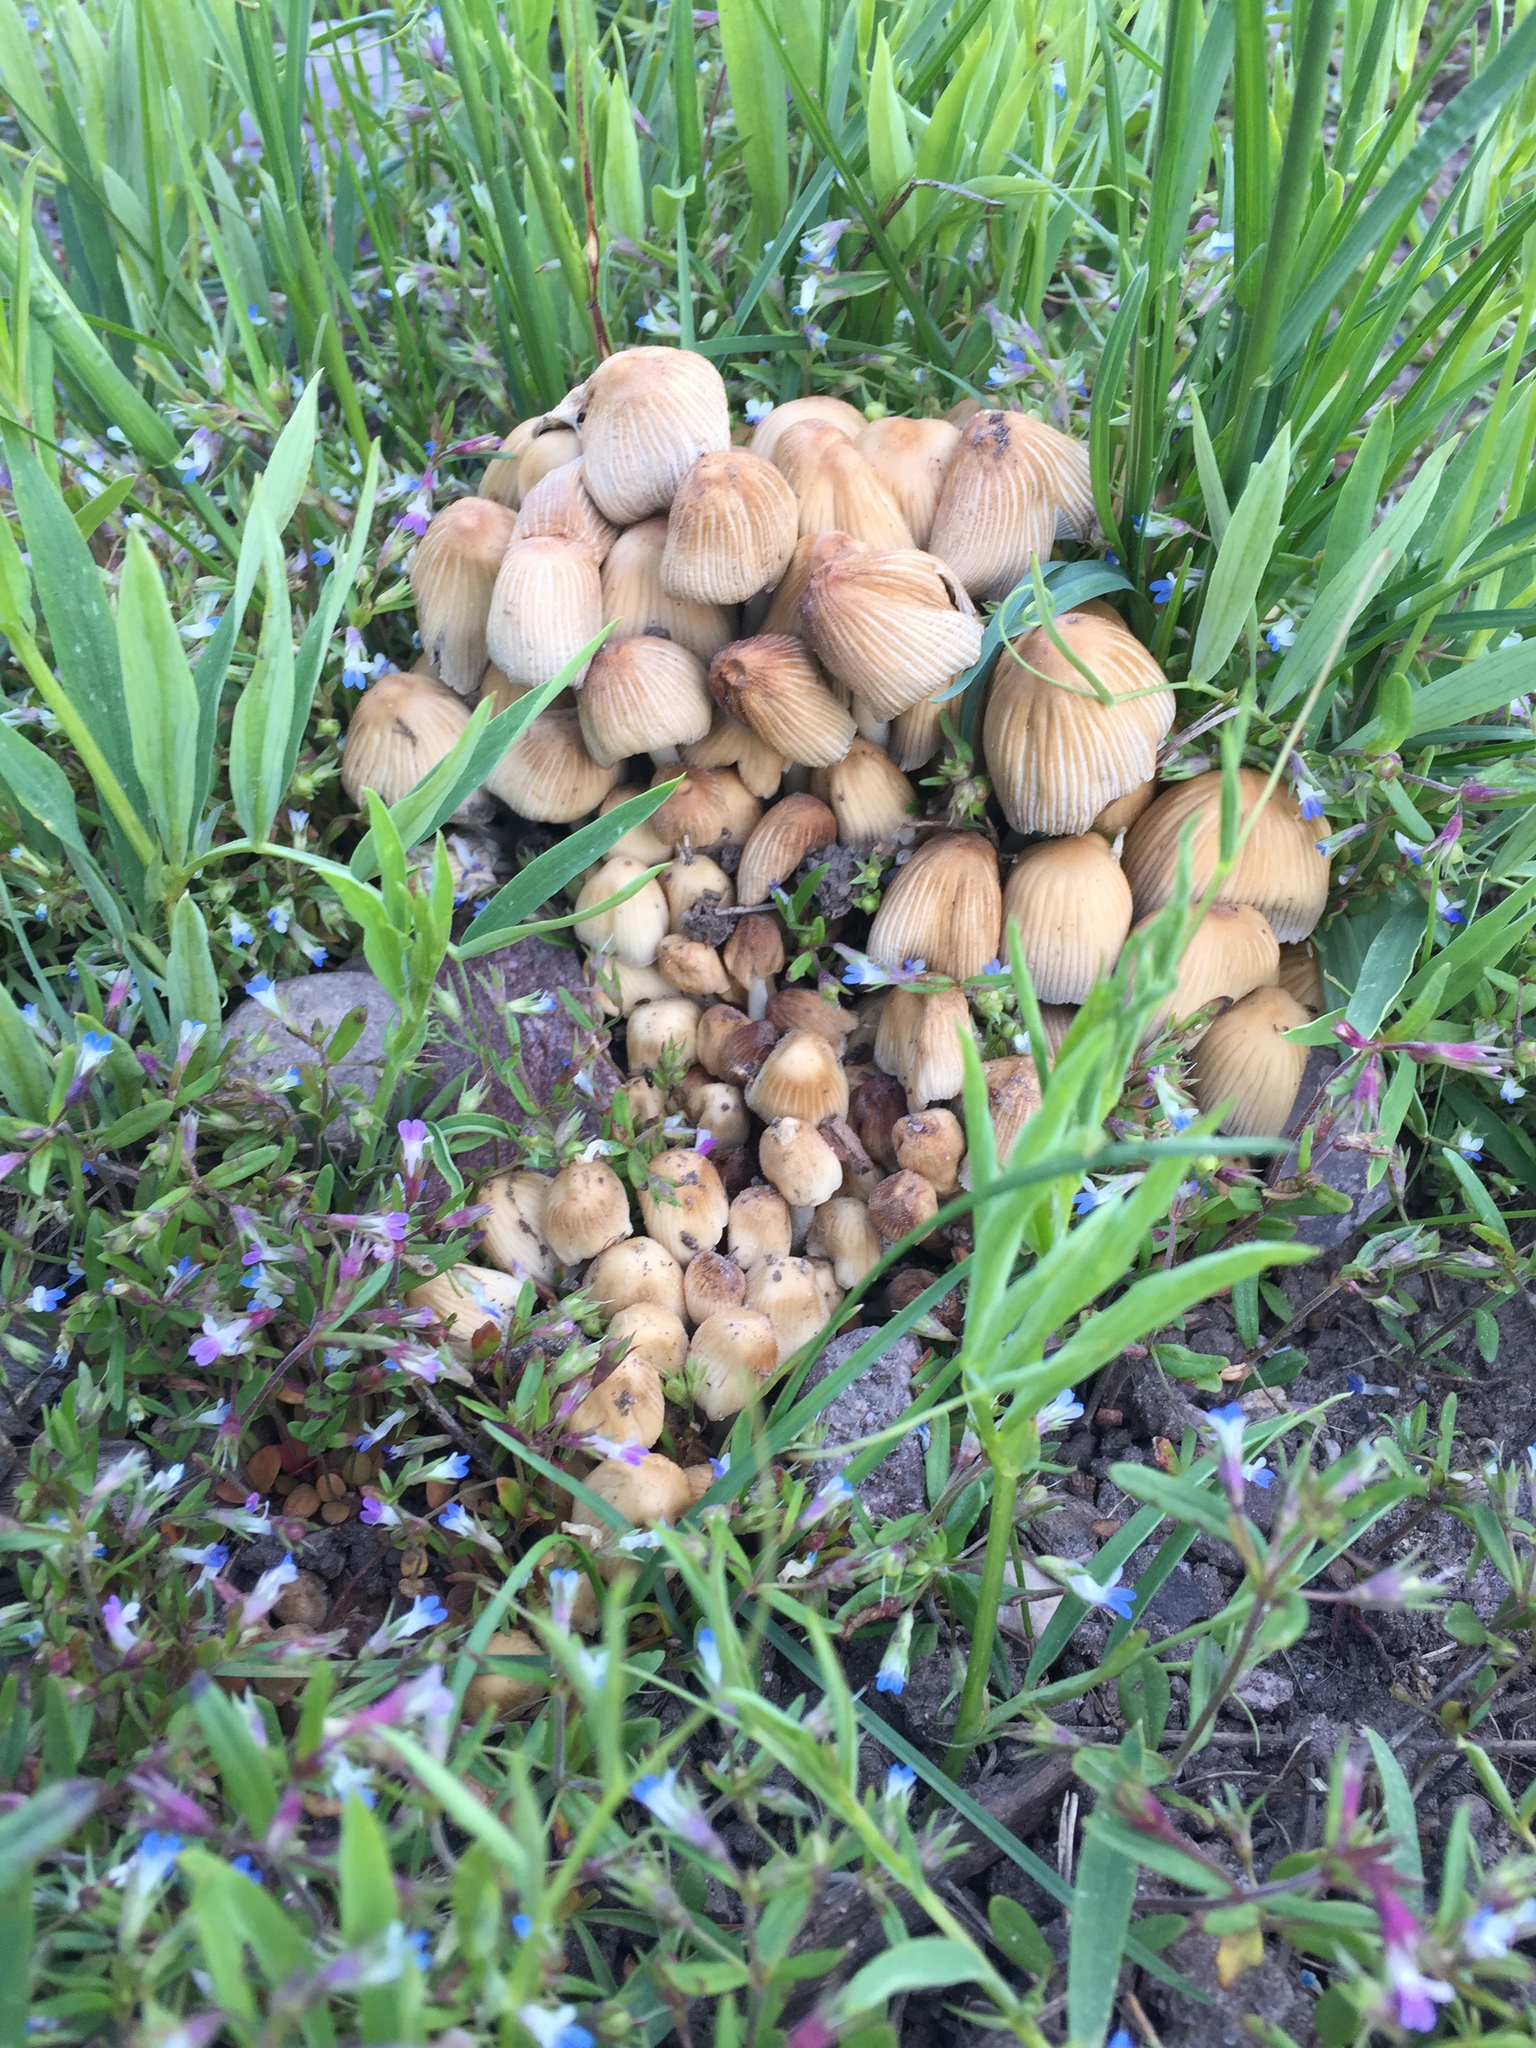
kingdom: Fungi
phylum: Basidiomycota
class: Agaricomycetes
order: Agaricales
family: Psathyrellaceae
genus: Coprinellus
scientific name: Coprinellus micaceus
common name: Glistening ink-cap
